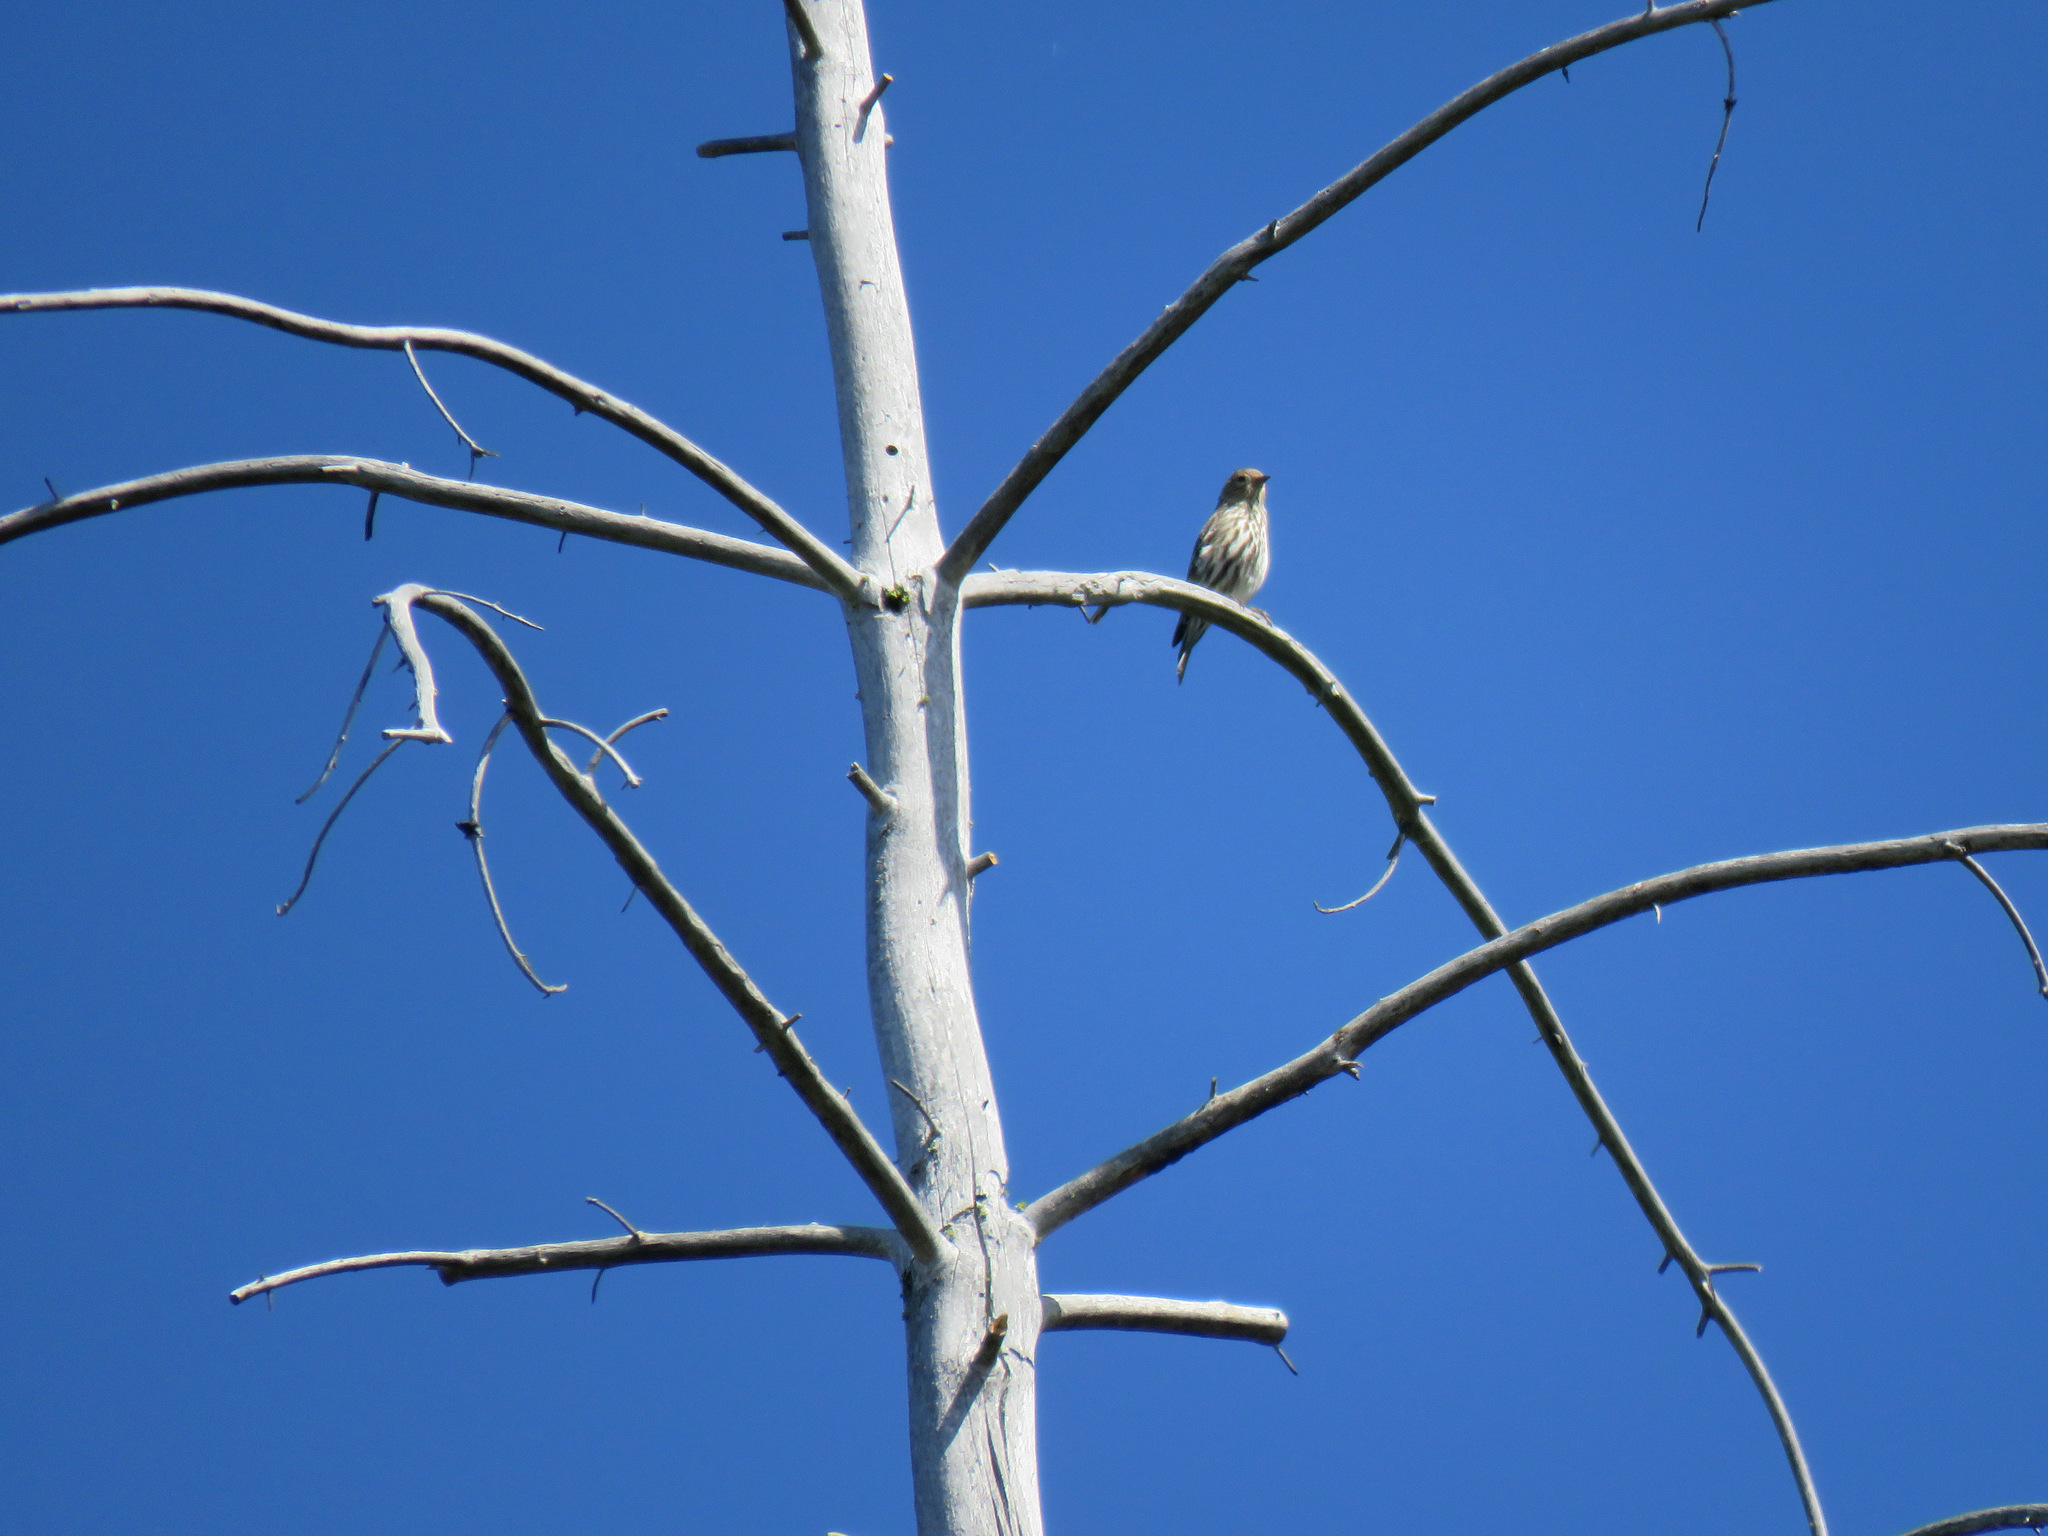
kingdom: Animalia
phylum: Chordata
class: Aves
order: Passeriformes
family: Fringillidae
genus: Spinus
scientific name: Spinus pinus
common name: Pine siskin
